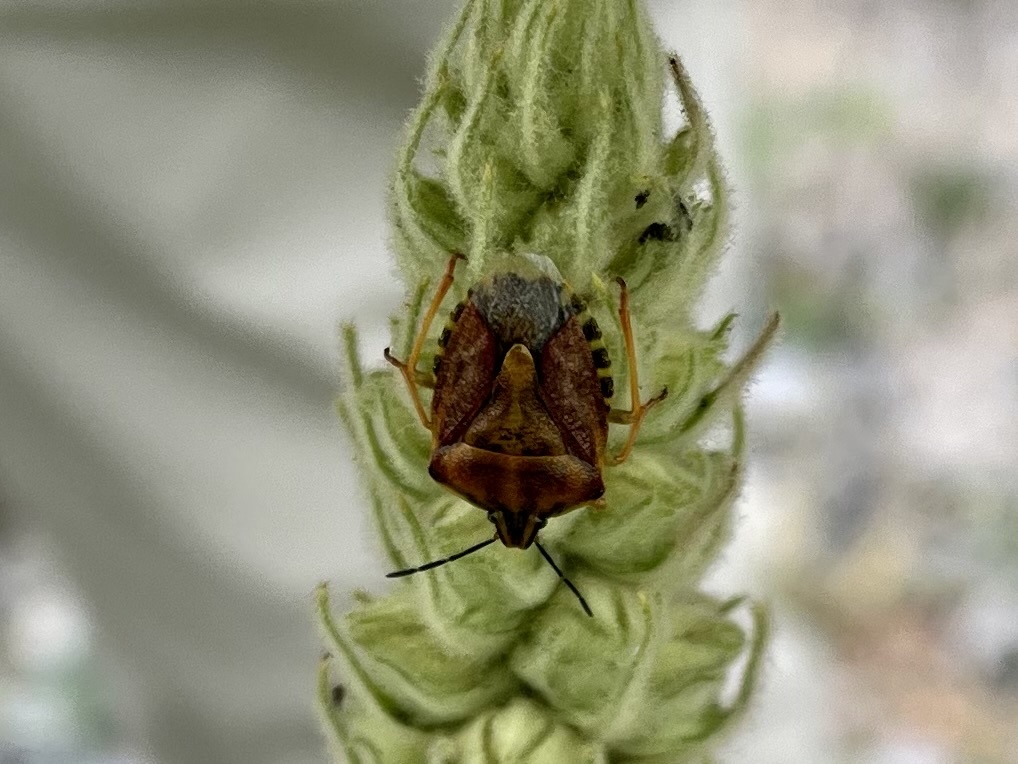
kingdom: Animalia
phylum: Arthropoda
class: Insecta
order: Hemiptera
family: Pentatomidae
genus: Carpocoris
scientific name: Carpocoris purpureipennis
